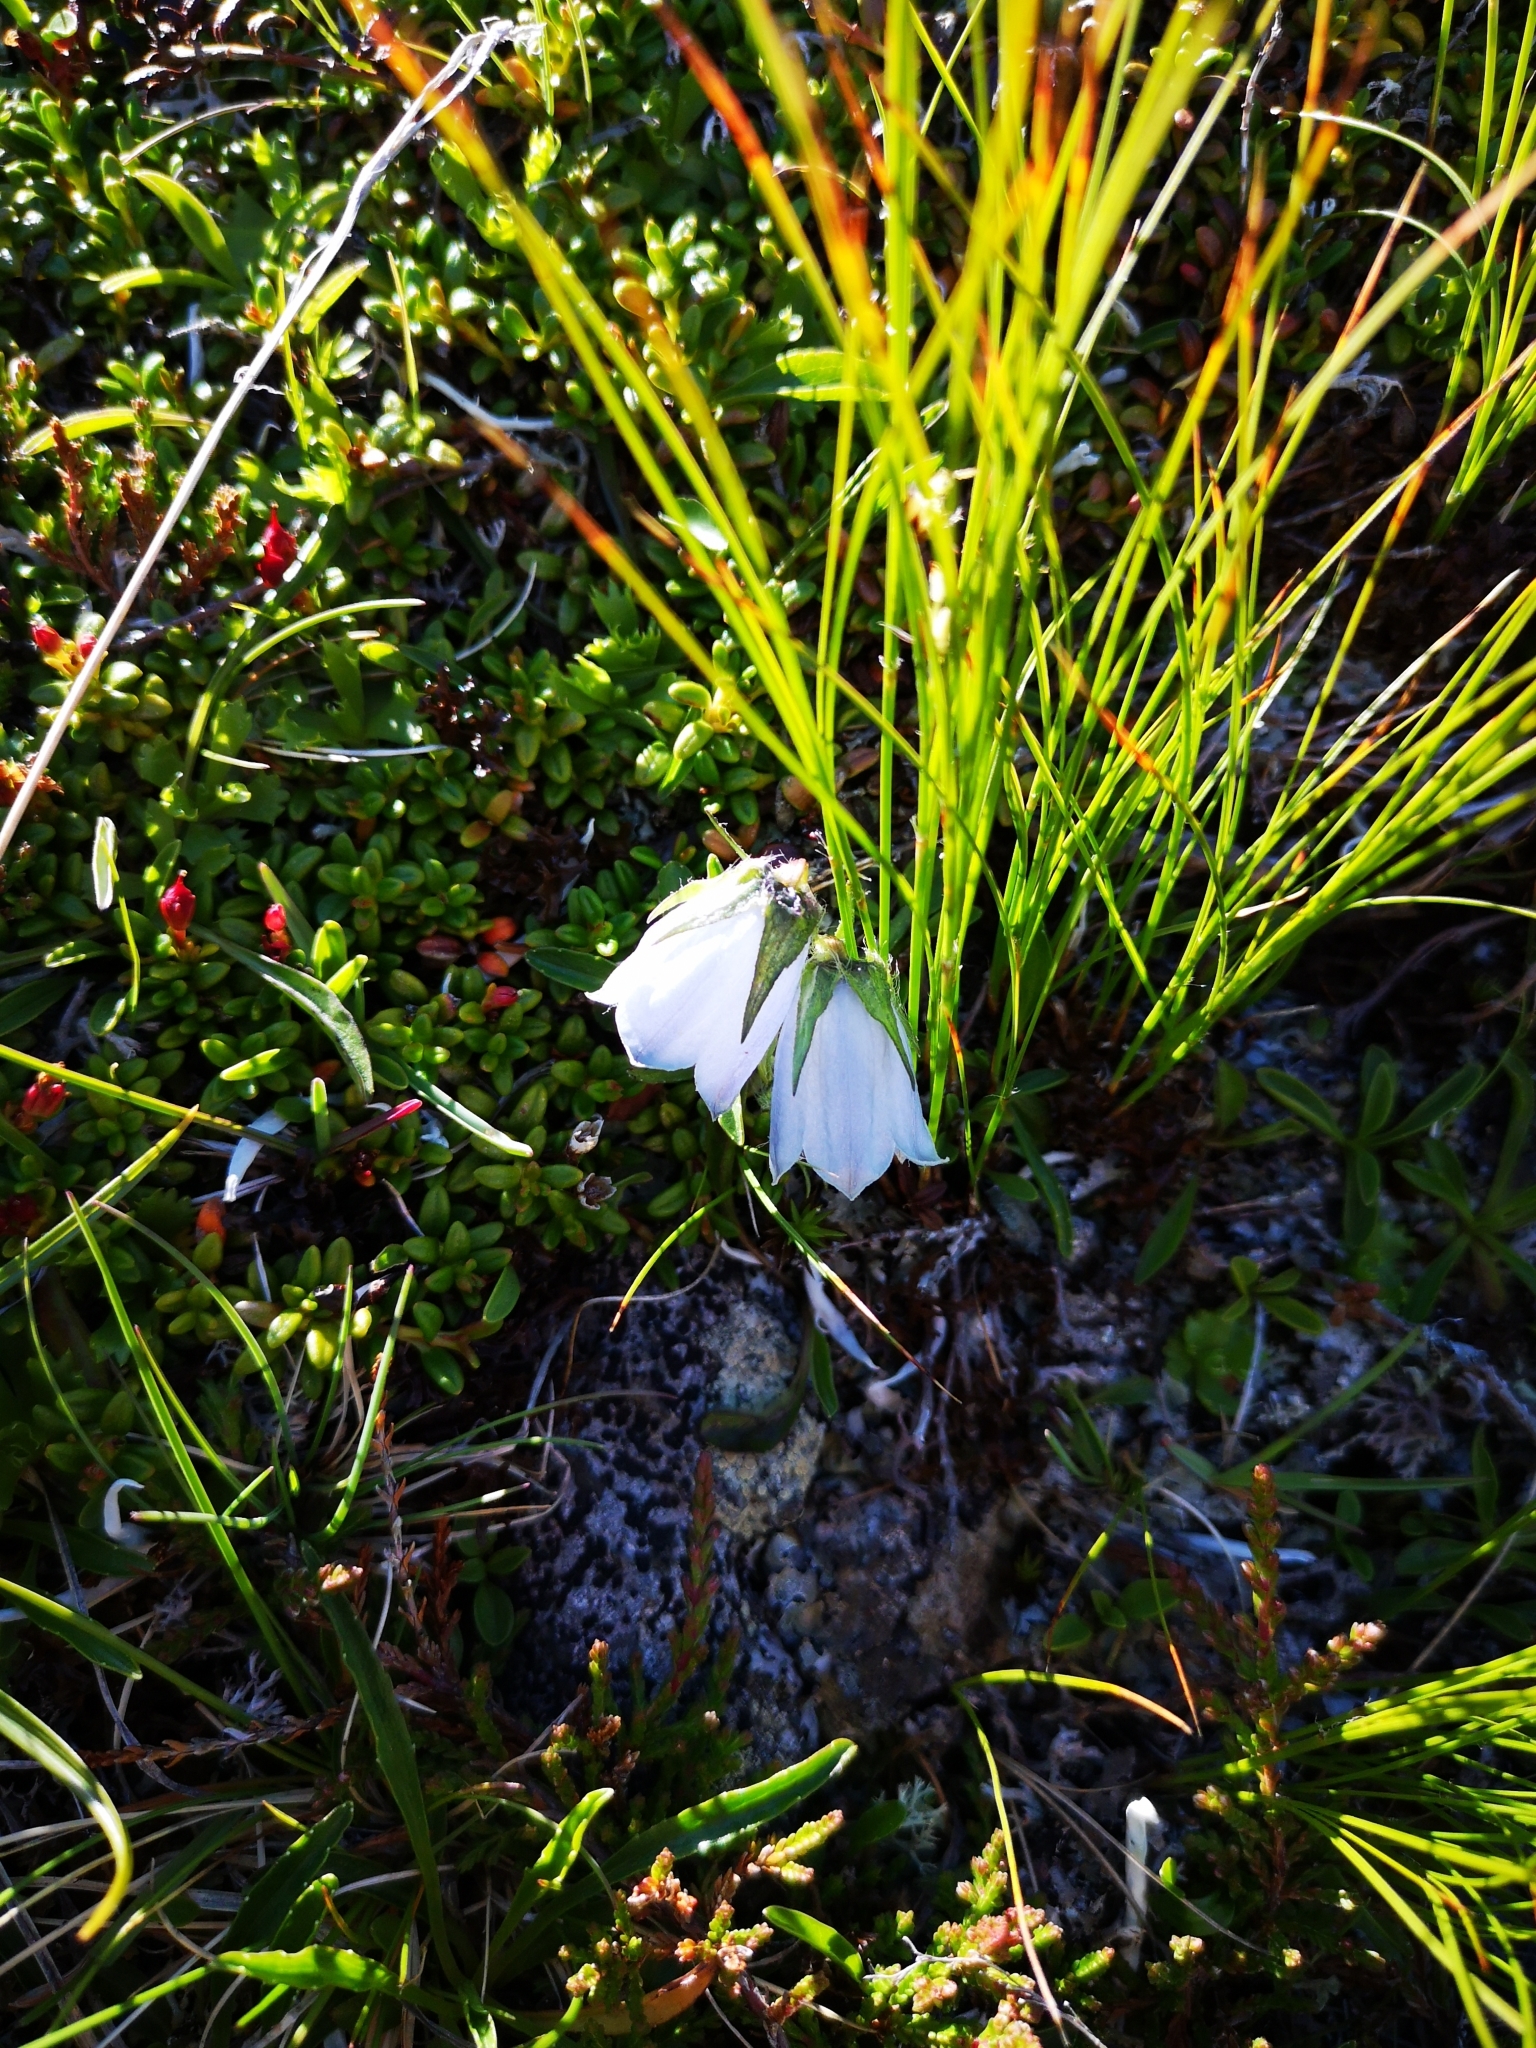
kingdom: Plantae
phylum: Tracheophyta
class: Magnoliopsida
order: Asterales
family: Campanulaceae
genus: Campanula
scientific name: Campanula alpina
